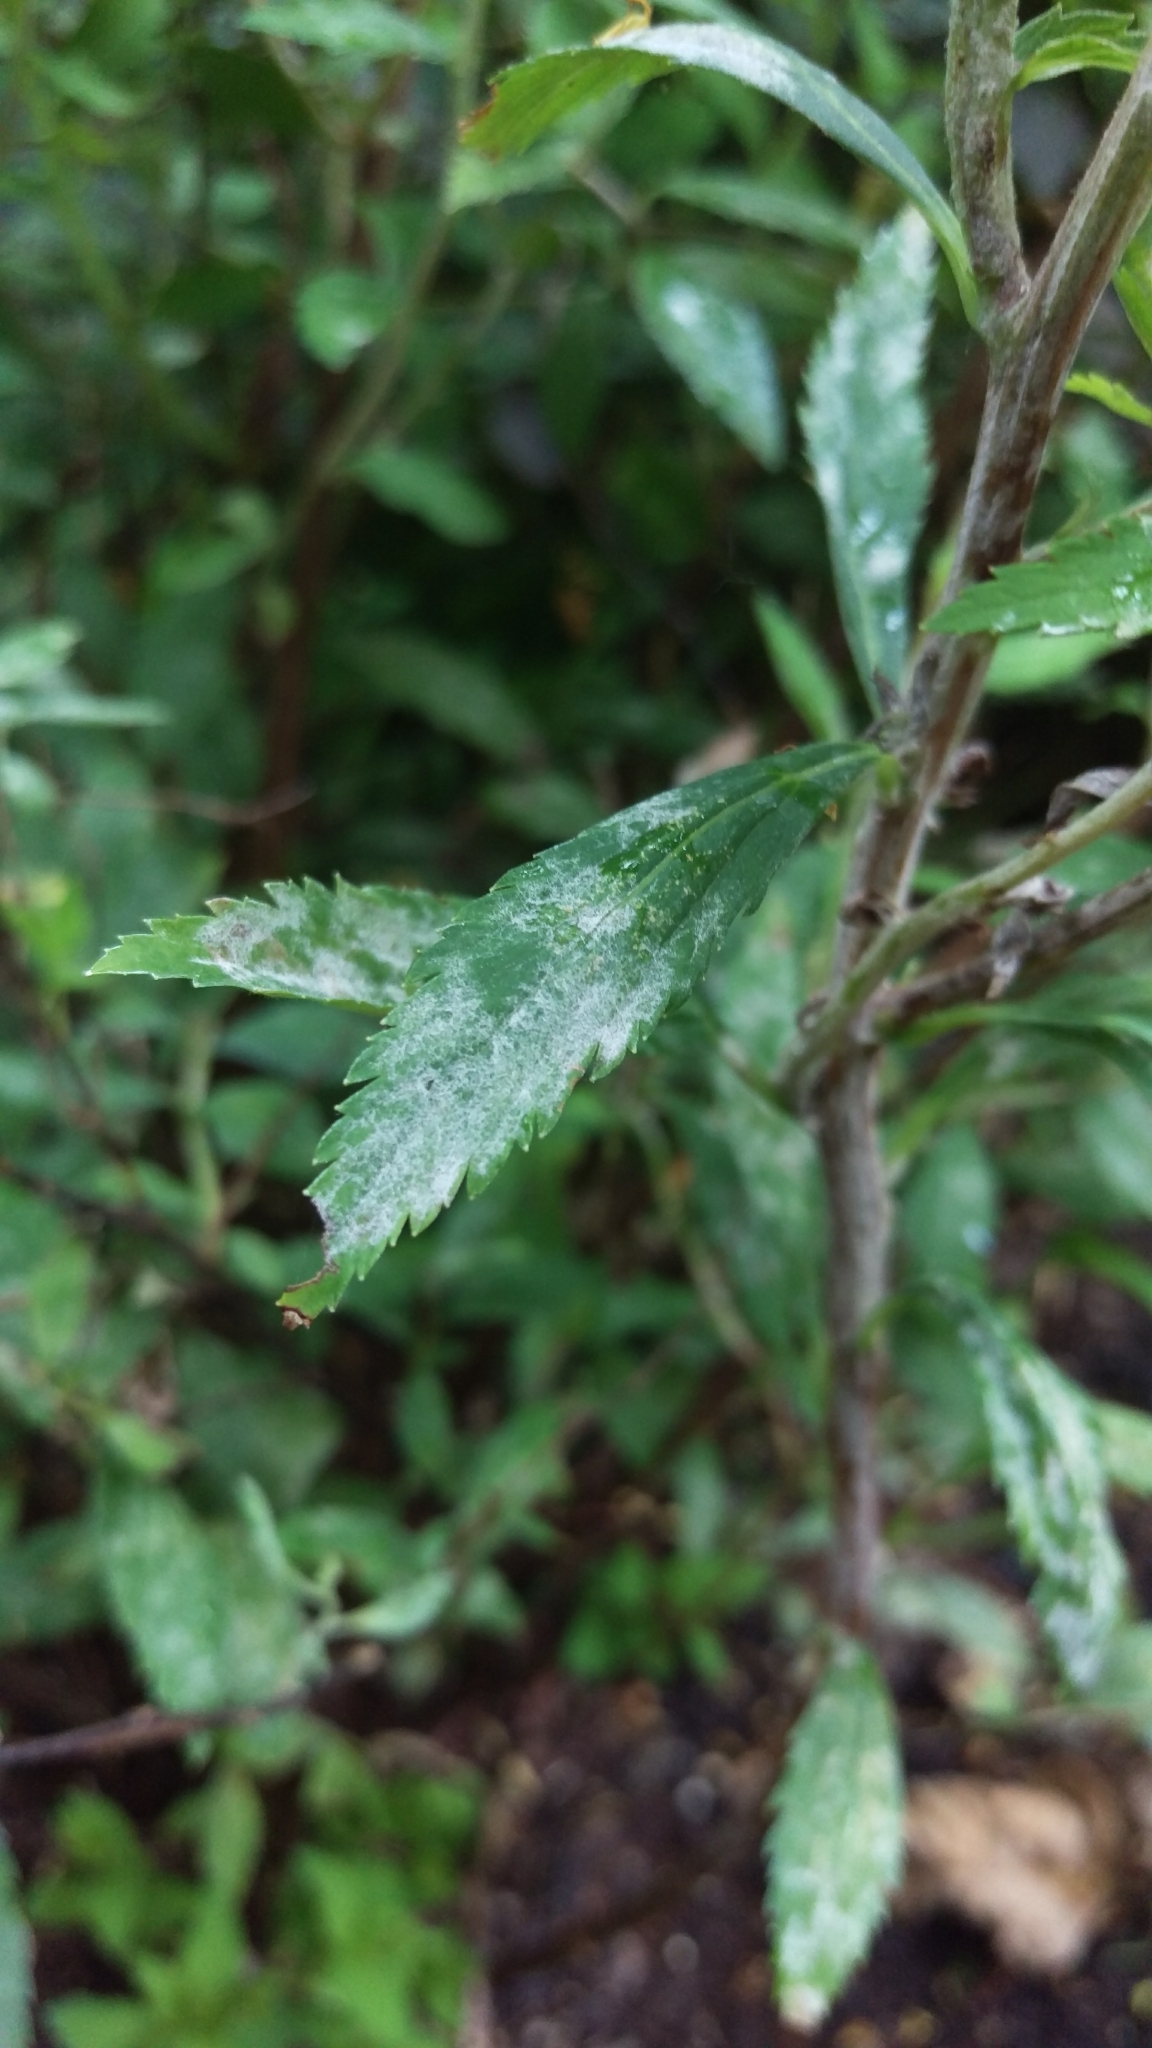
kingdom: Fungi
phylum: Ascomycota
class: Leotiomycetes
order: Helotiales
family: Erysiphaceae
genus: Podosphaera
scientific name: Podosphaera spiraeae
